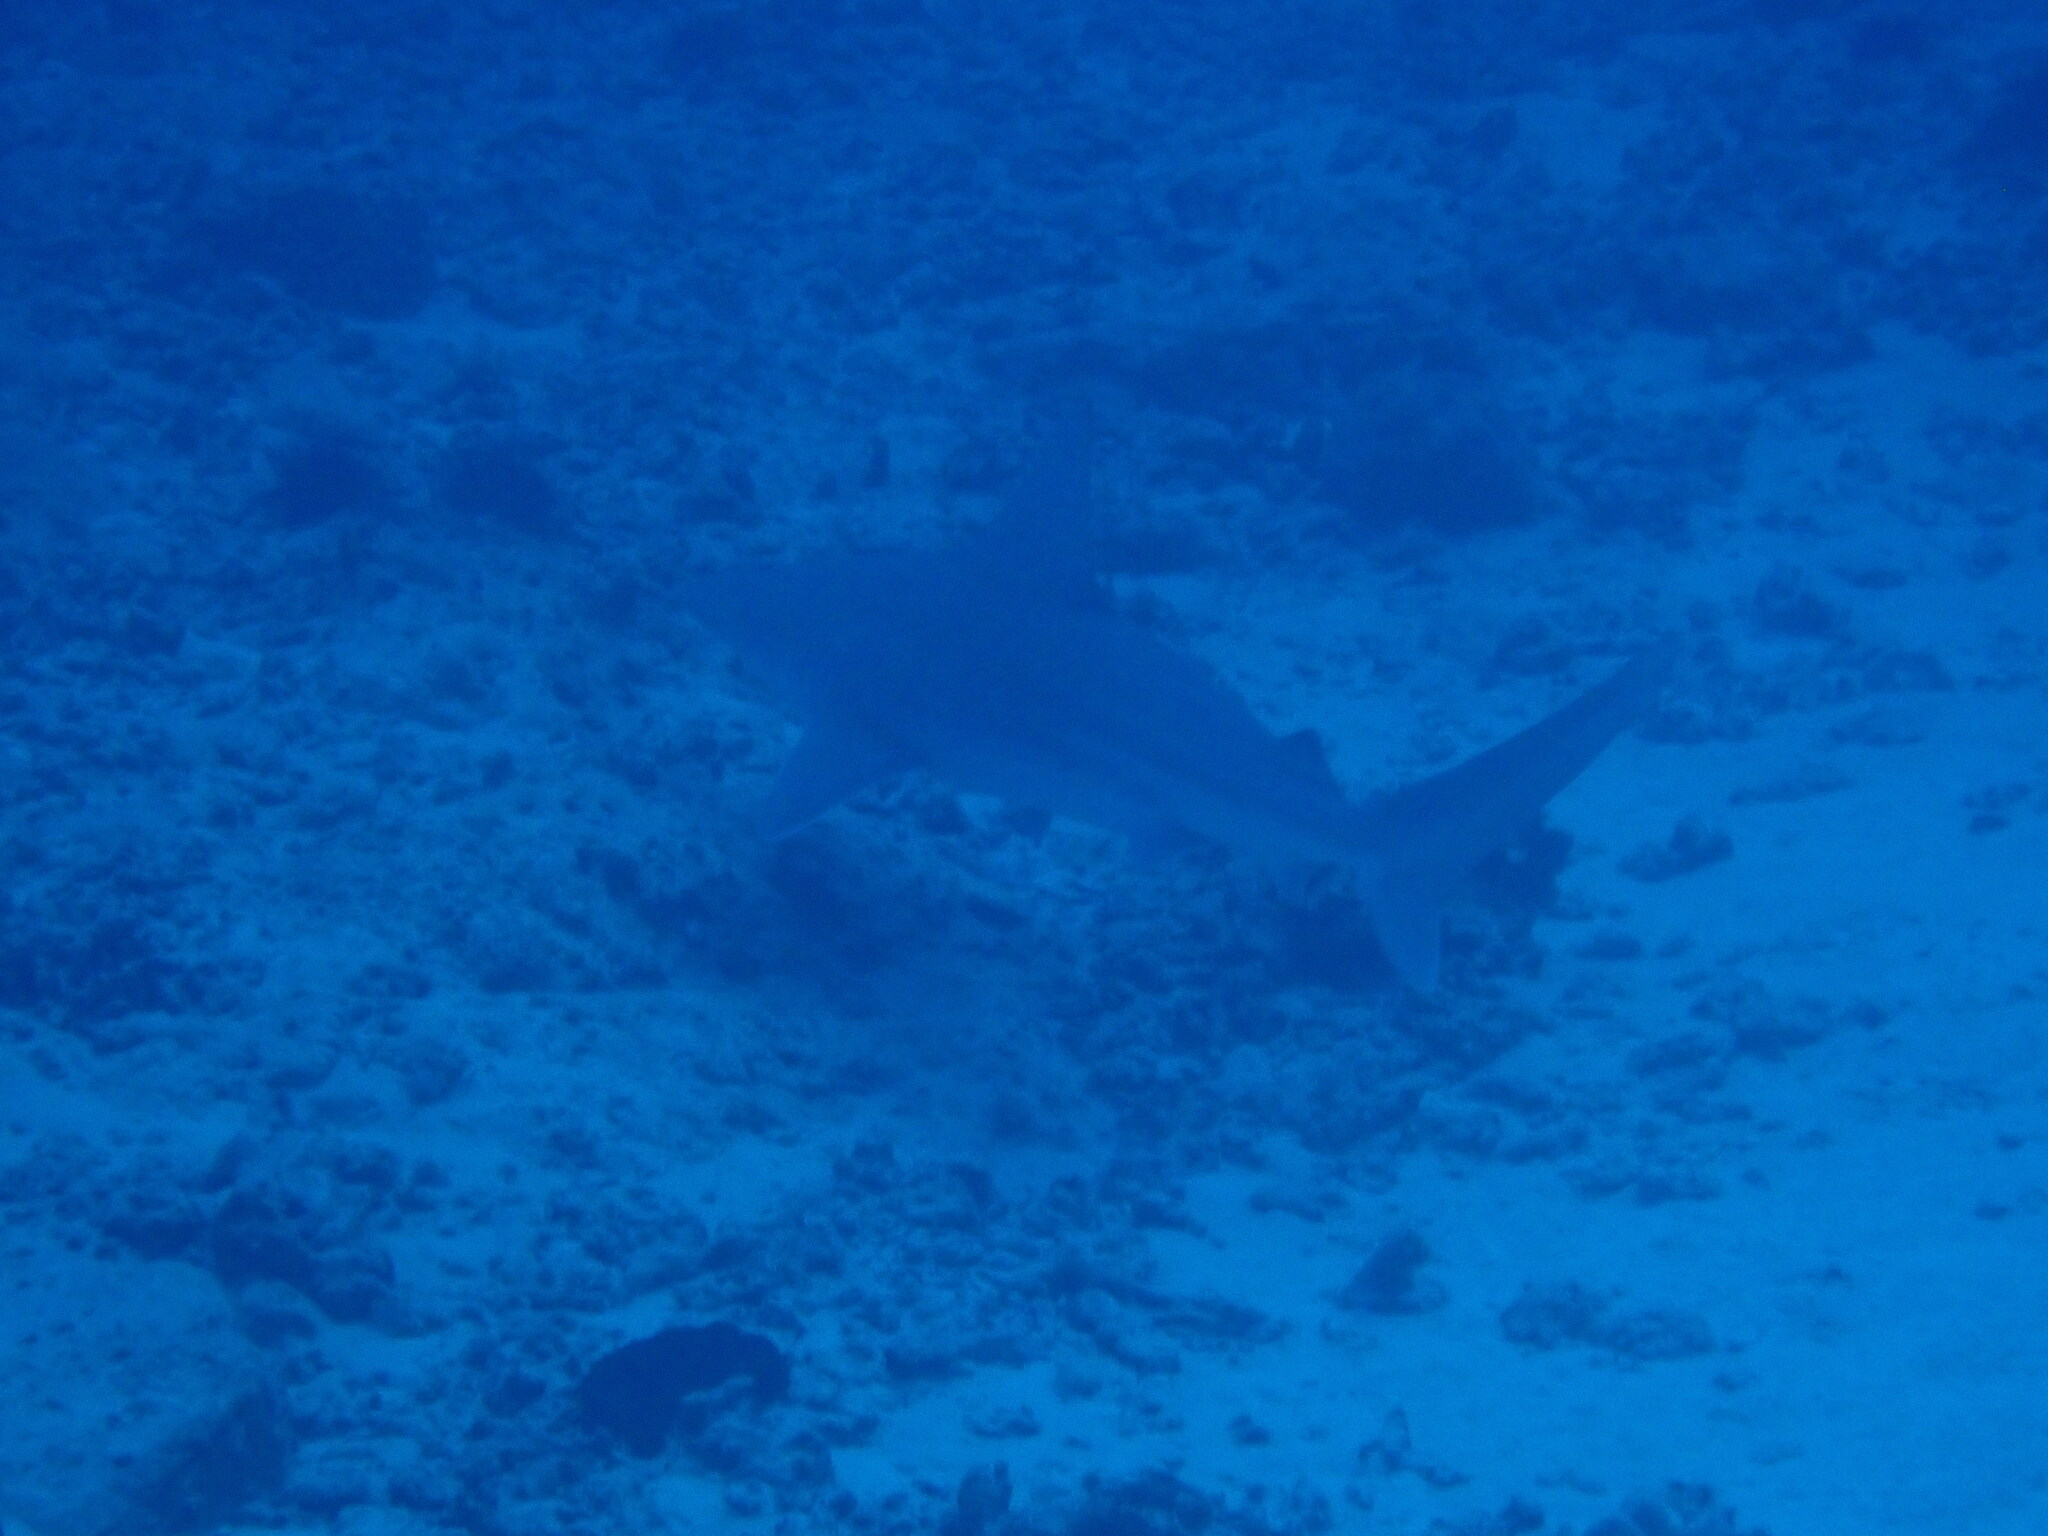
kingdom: Animalia
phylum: Chordata
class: Elasmobranchii
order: Carcharhiniformes
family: Carcharhinidae
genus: Carcharhinus
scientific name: Carcharhinus plumbeus
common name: Sandbar shark
